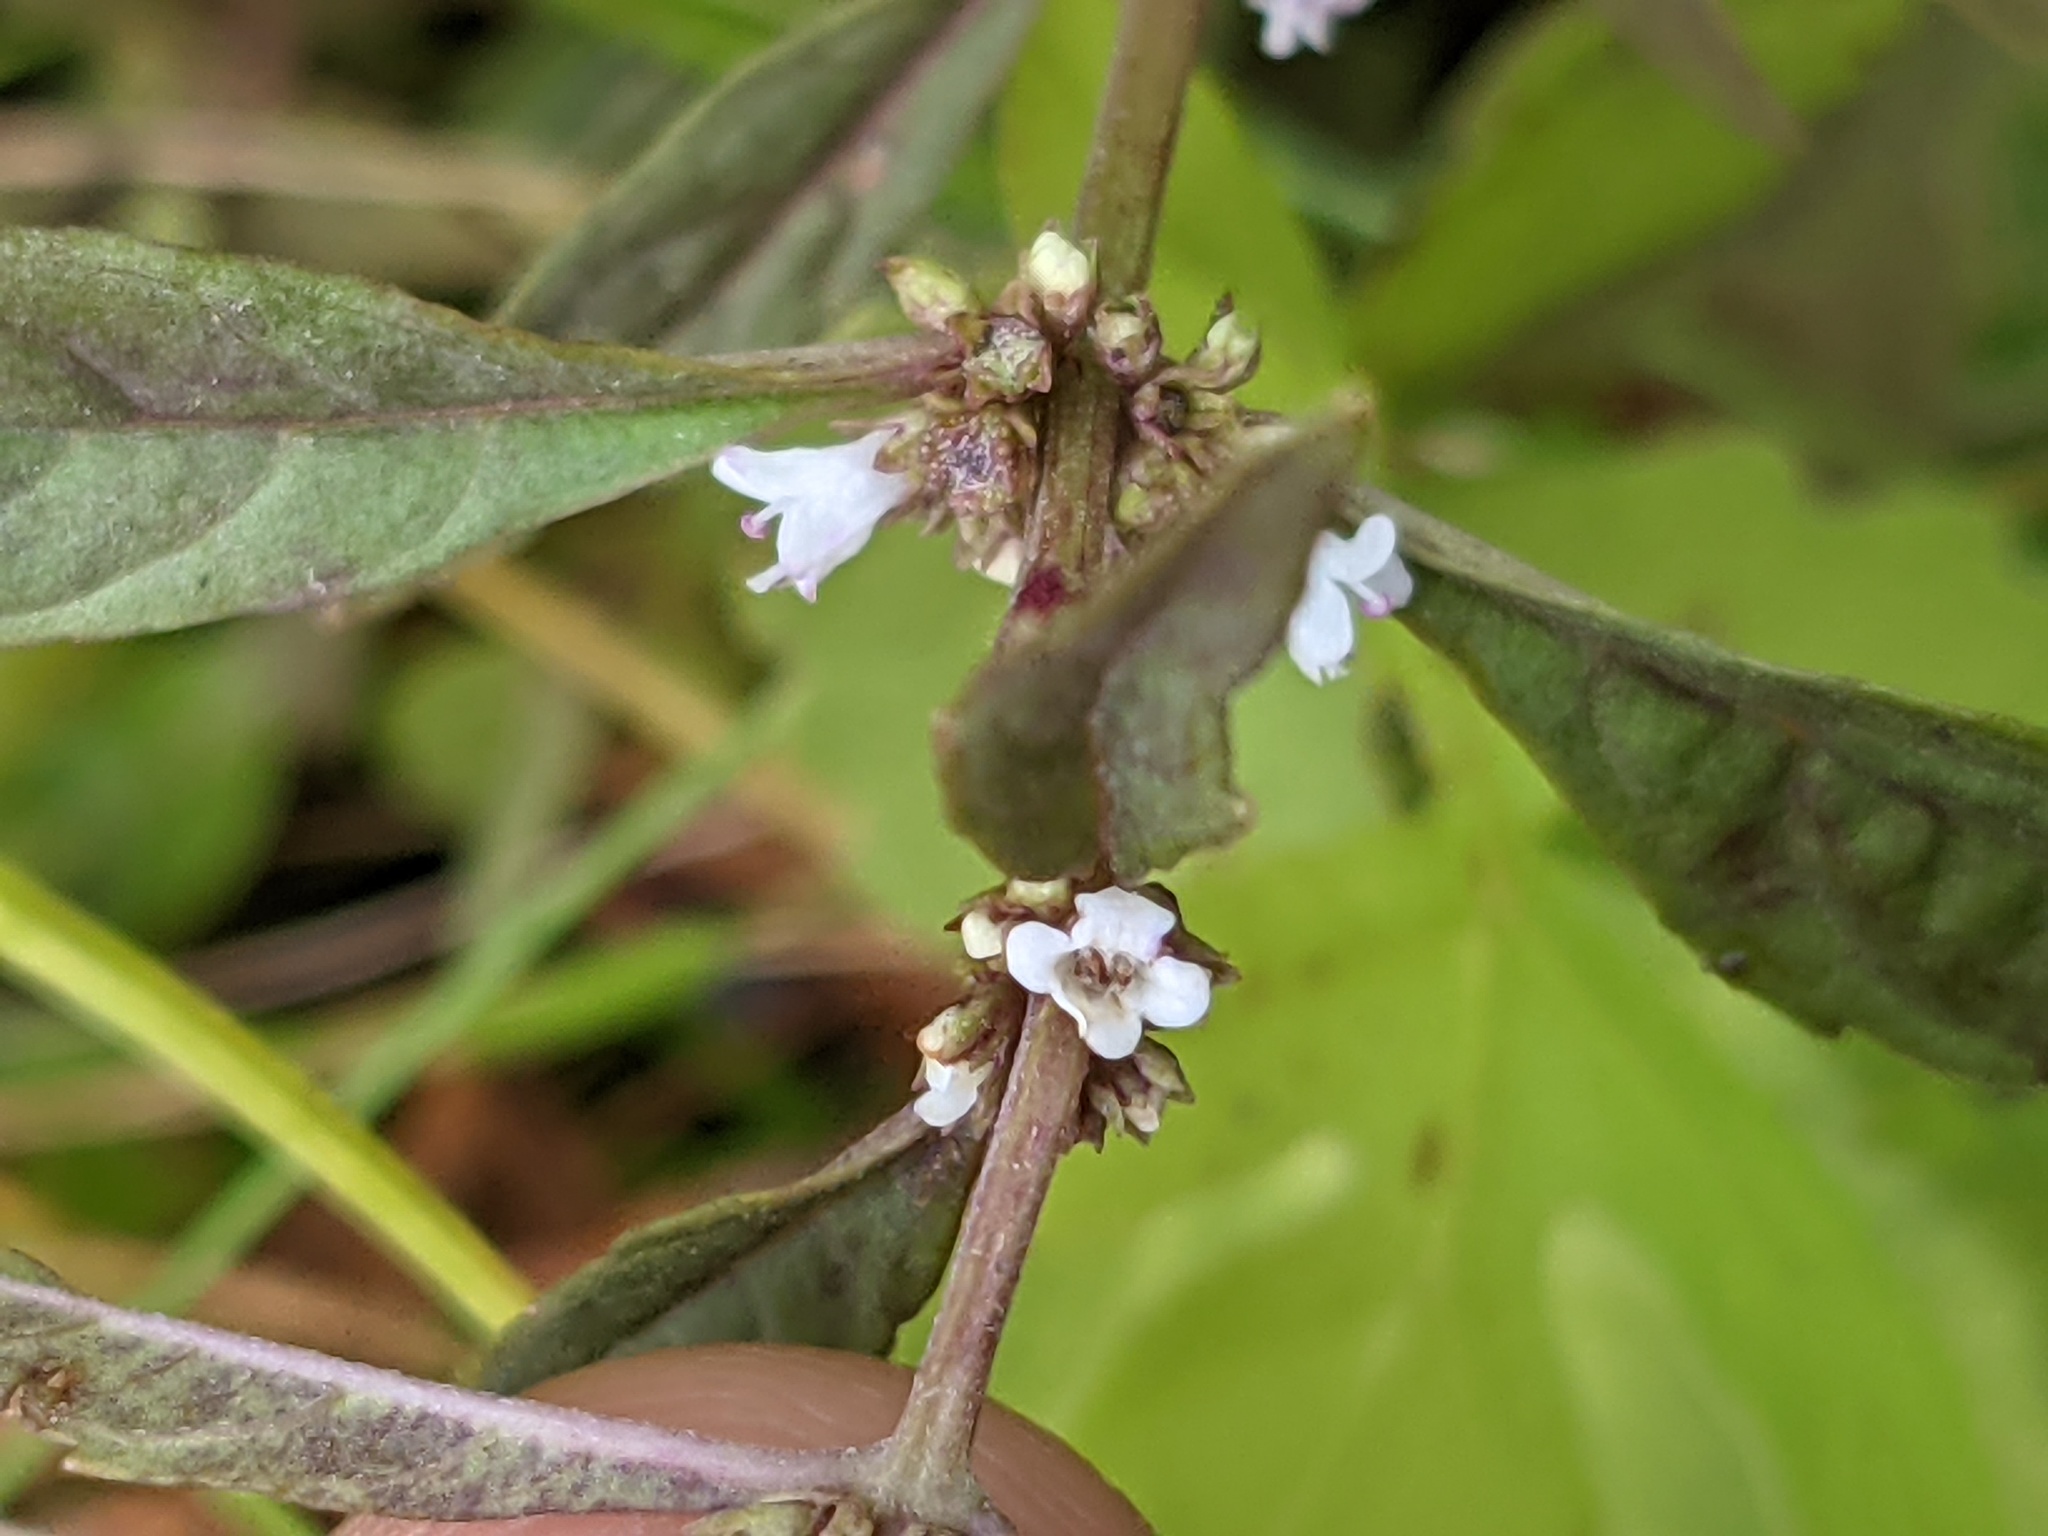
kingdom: Plantae
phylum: Tracheophyta
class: Magnoliopsida
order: Lamiales
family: Lamiaceae
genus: Lycopus
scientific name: Lycopus uniflorus
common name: Northern bugleweed
